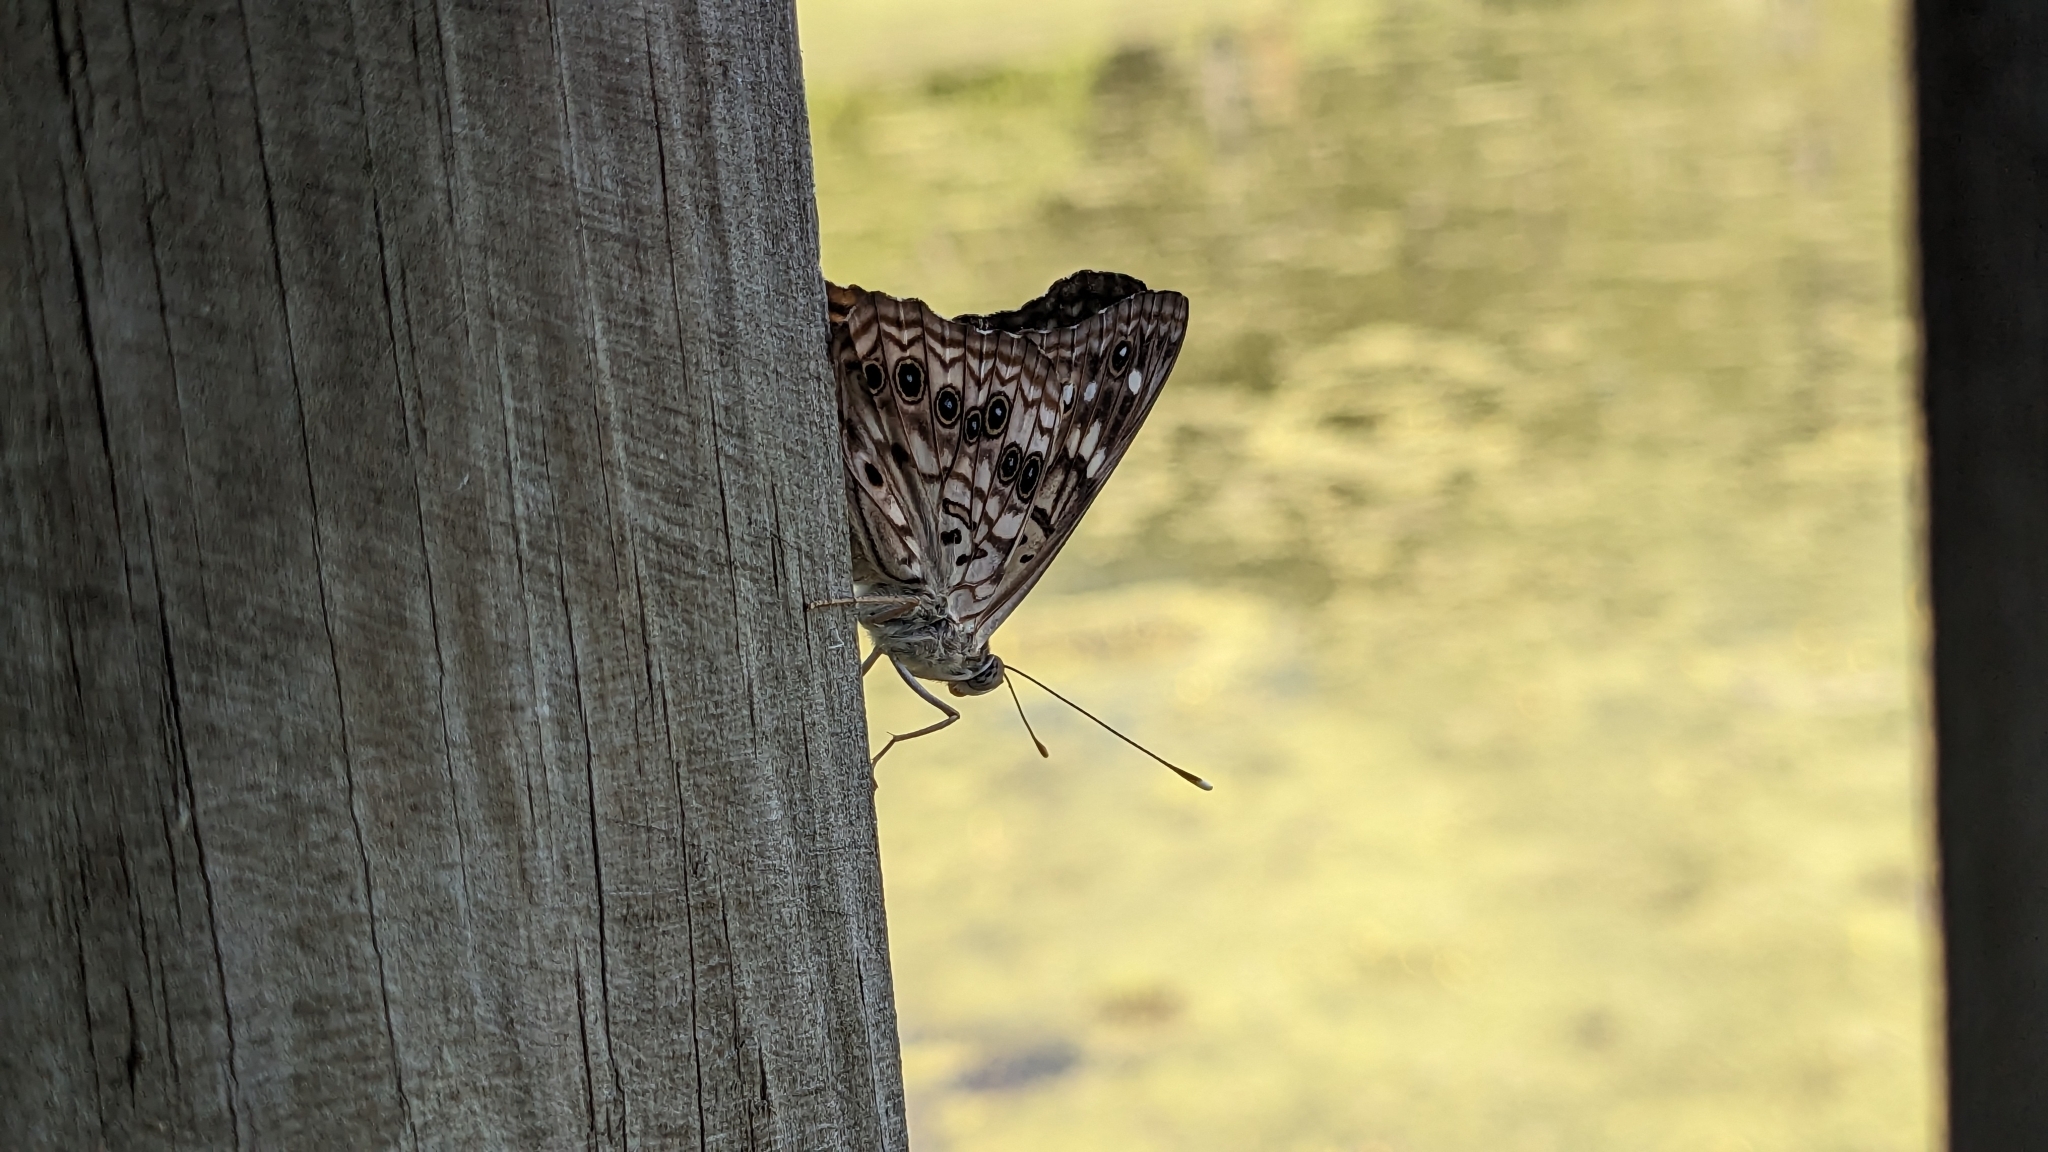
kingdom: Animalia
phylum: Arthropoda
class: Insecta
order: Lepidoptera
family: Nymphalidae
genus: Asterocampa
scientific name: Asterocampa celtis
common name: Hackberry emperor
